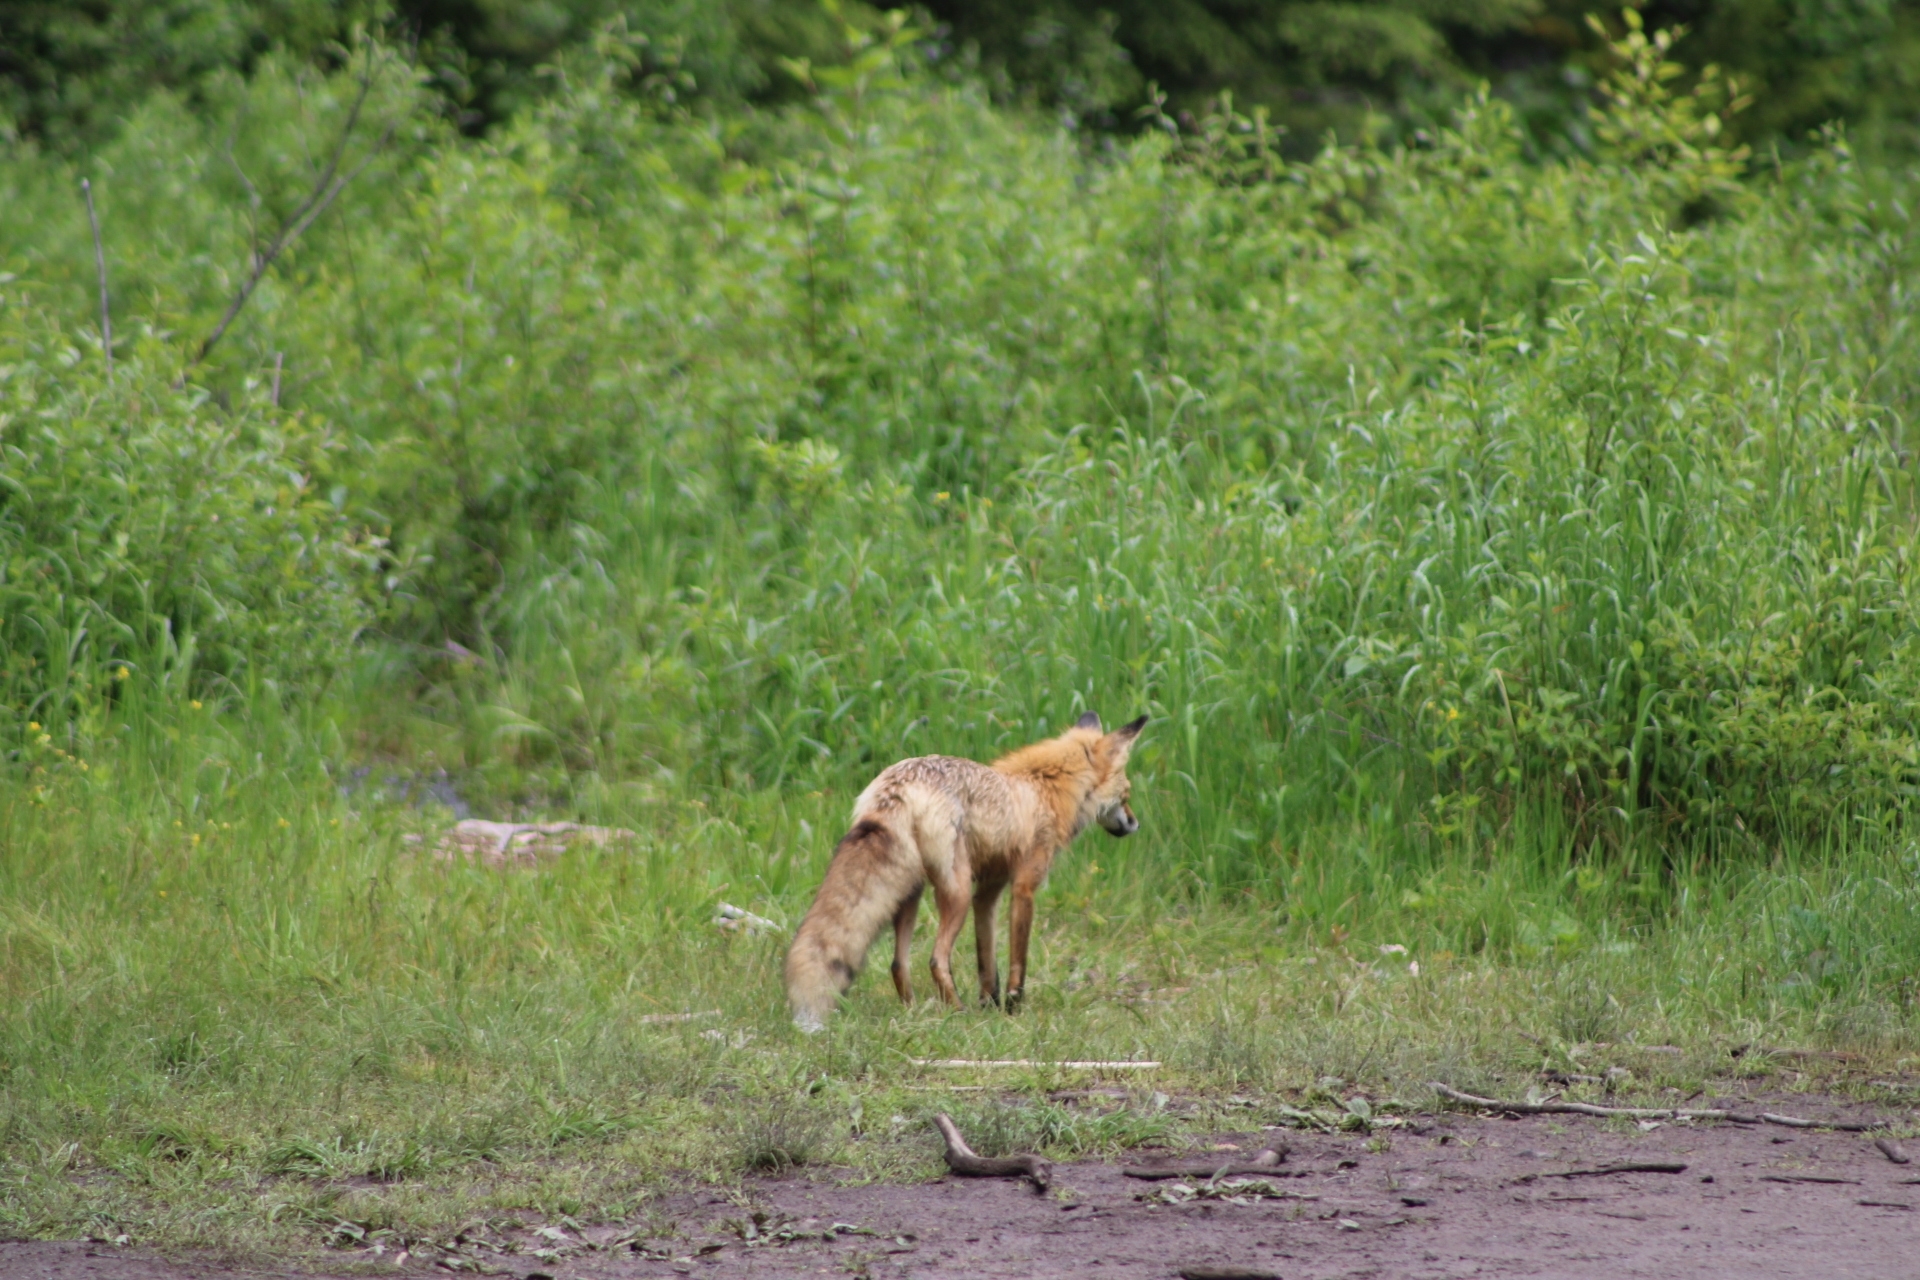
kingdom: Animalia
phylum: Chordata
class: Mammalia
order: Carnivora
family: Canidae
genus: Vulpes
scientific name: Vulpes vulpes
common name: Red fox
